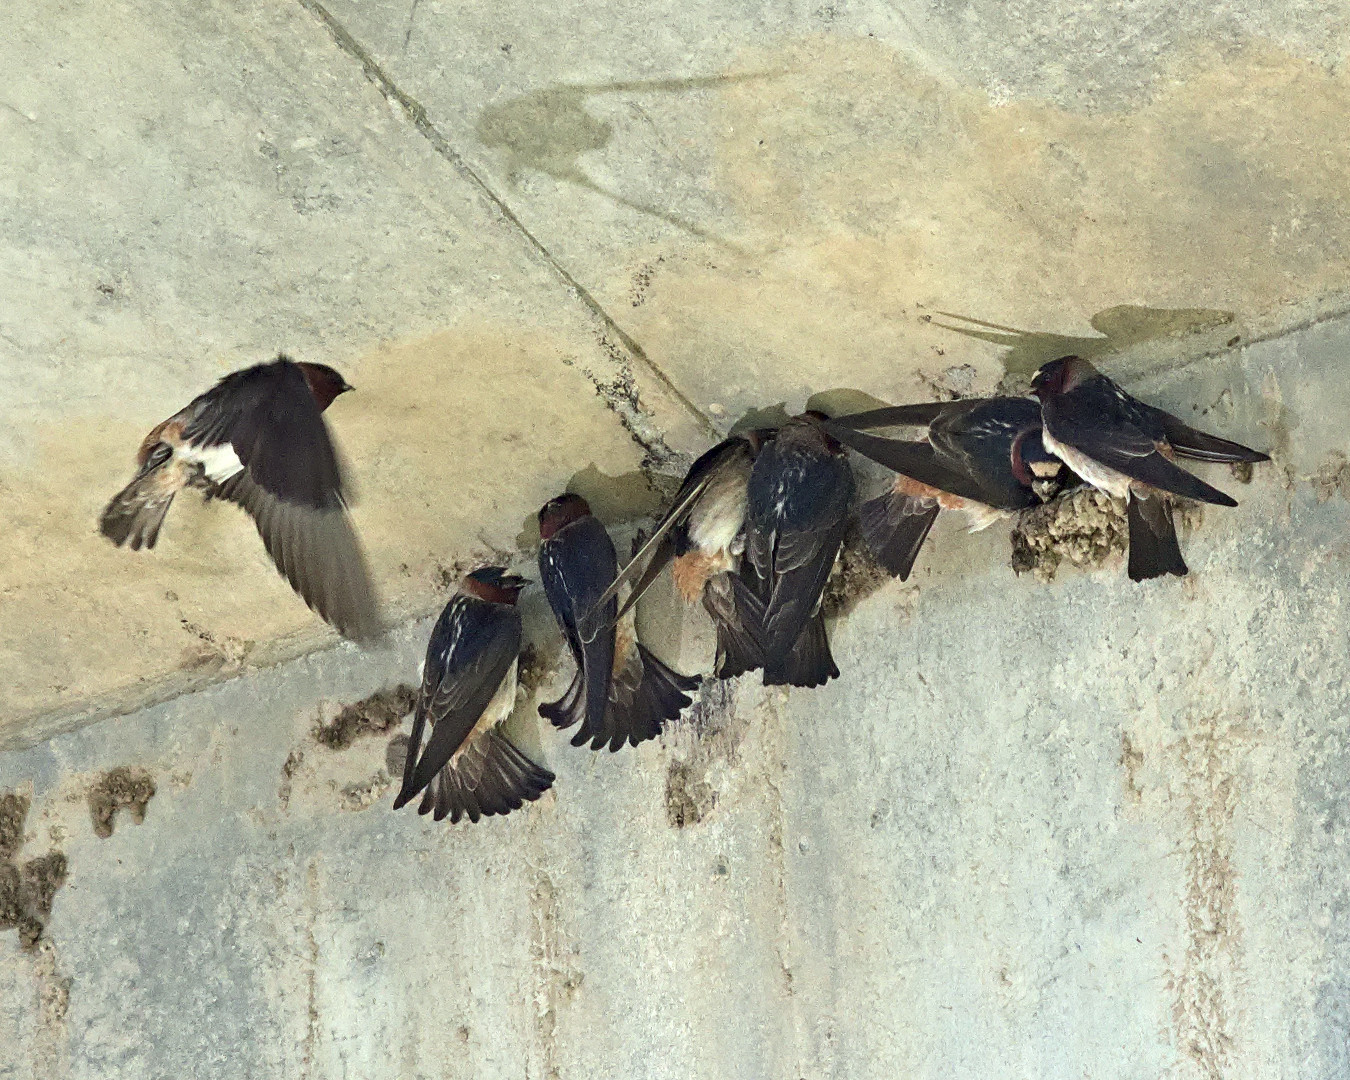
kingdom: Animalia
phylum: Chordata
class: Aves
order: Passeriformes
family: Hirundinidae
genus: Petrochelidon
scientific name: Petrochelidon pyrrhonota
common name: American cliff swallow
